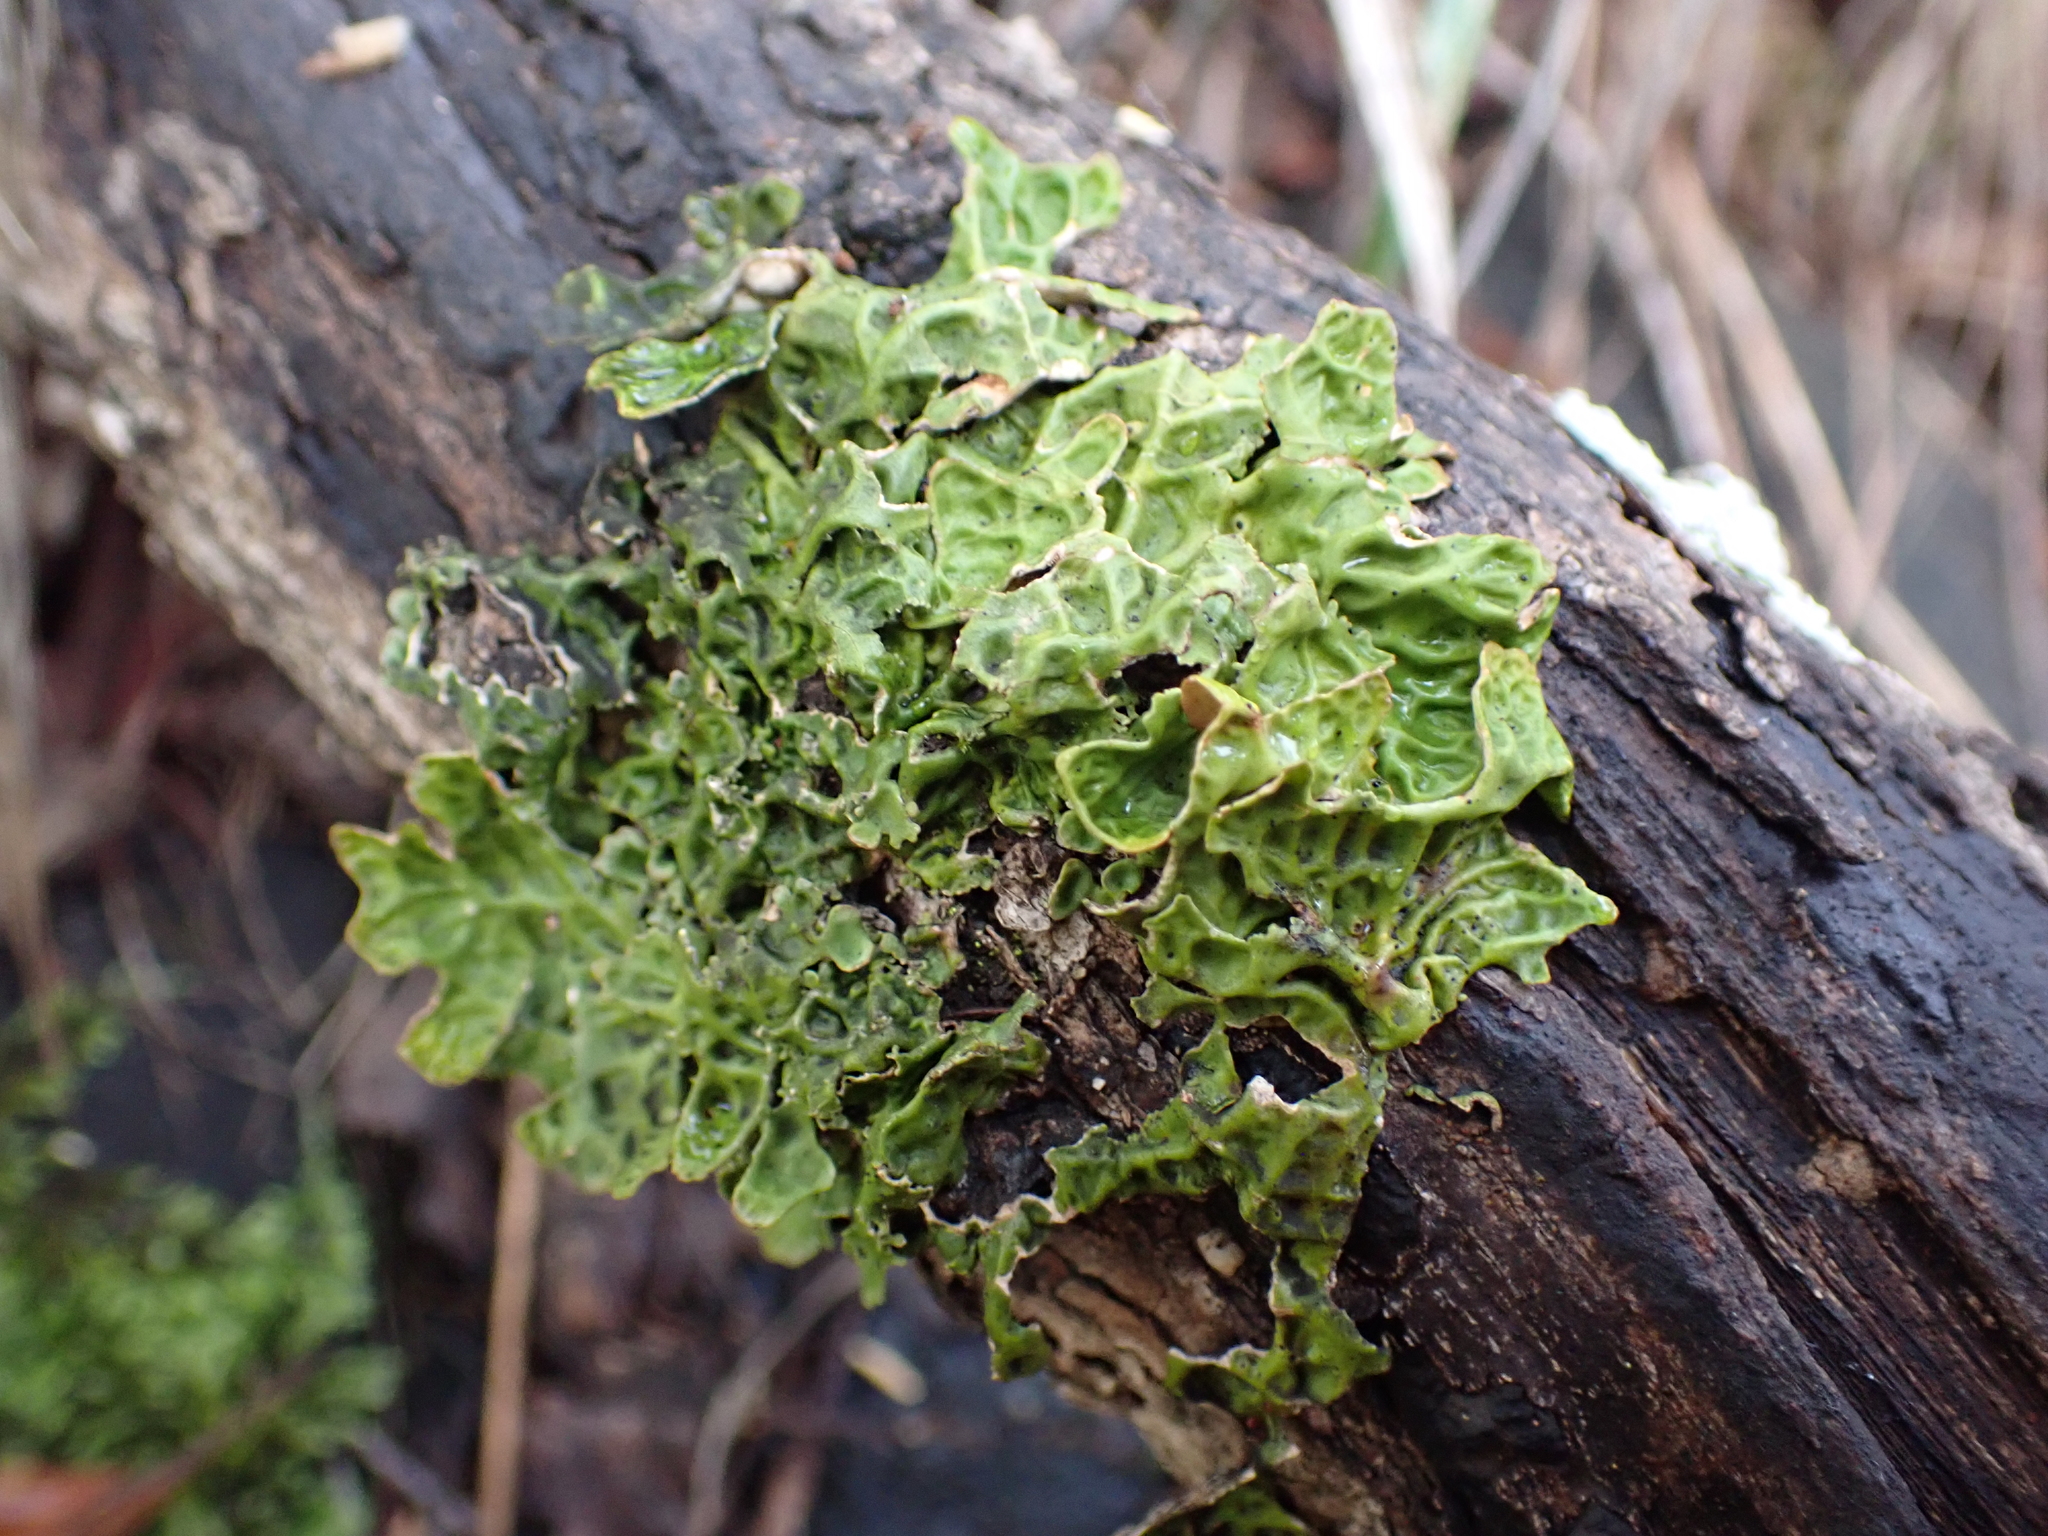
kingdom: Fungi
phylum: Ascomycota
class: Lecanoromycetes
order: Peltigerales
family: Lobariaceae
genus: Lobaria
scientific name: Lobaria pulmonaria
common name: Lungwort
